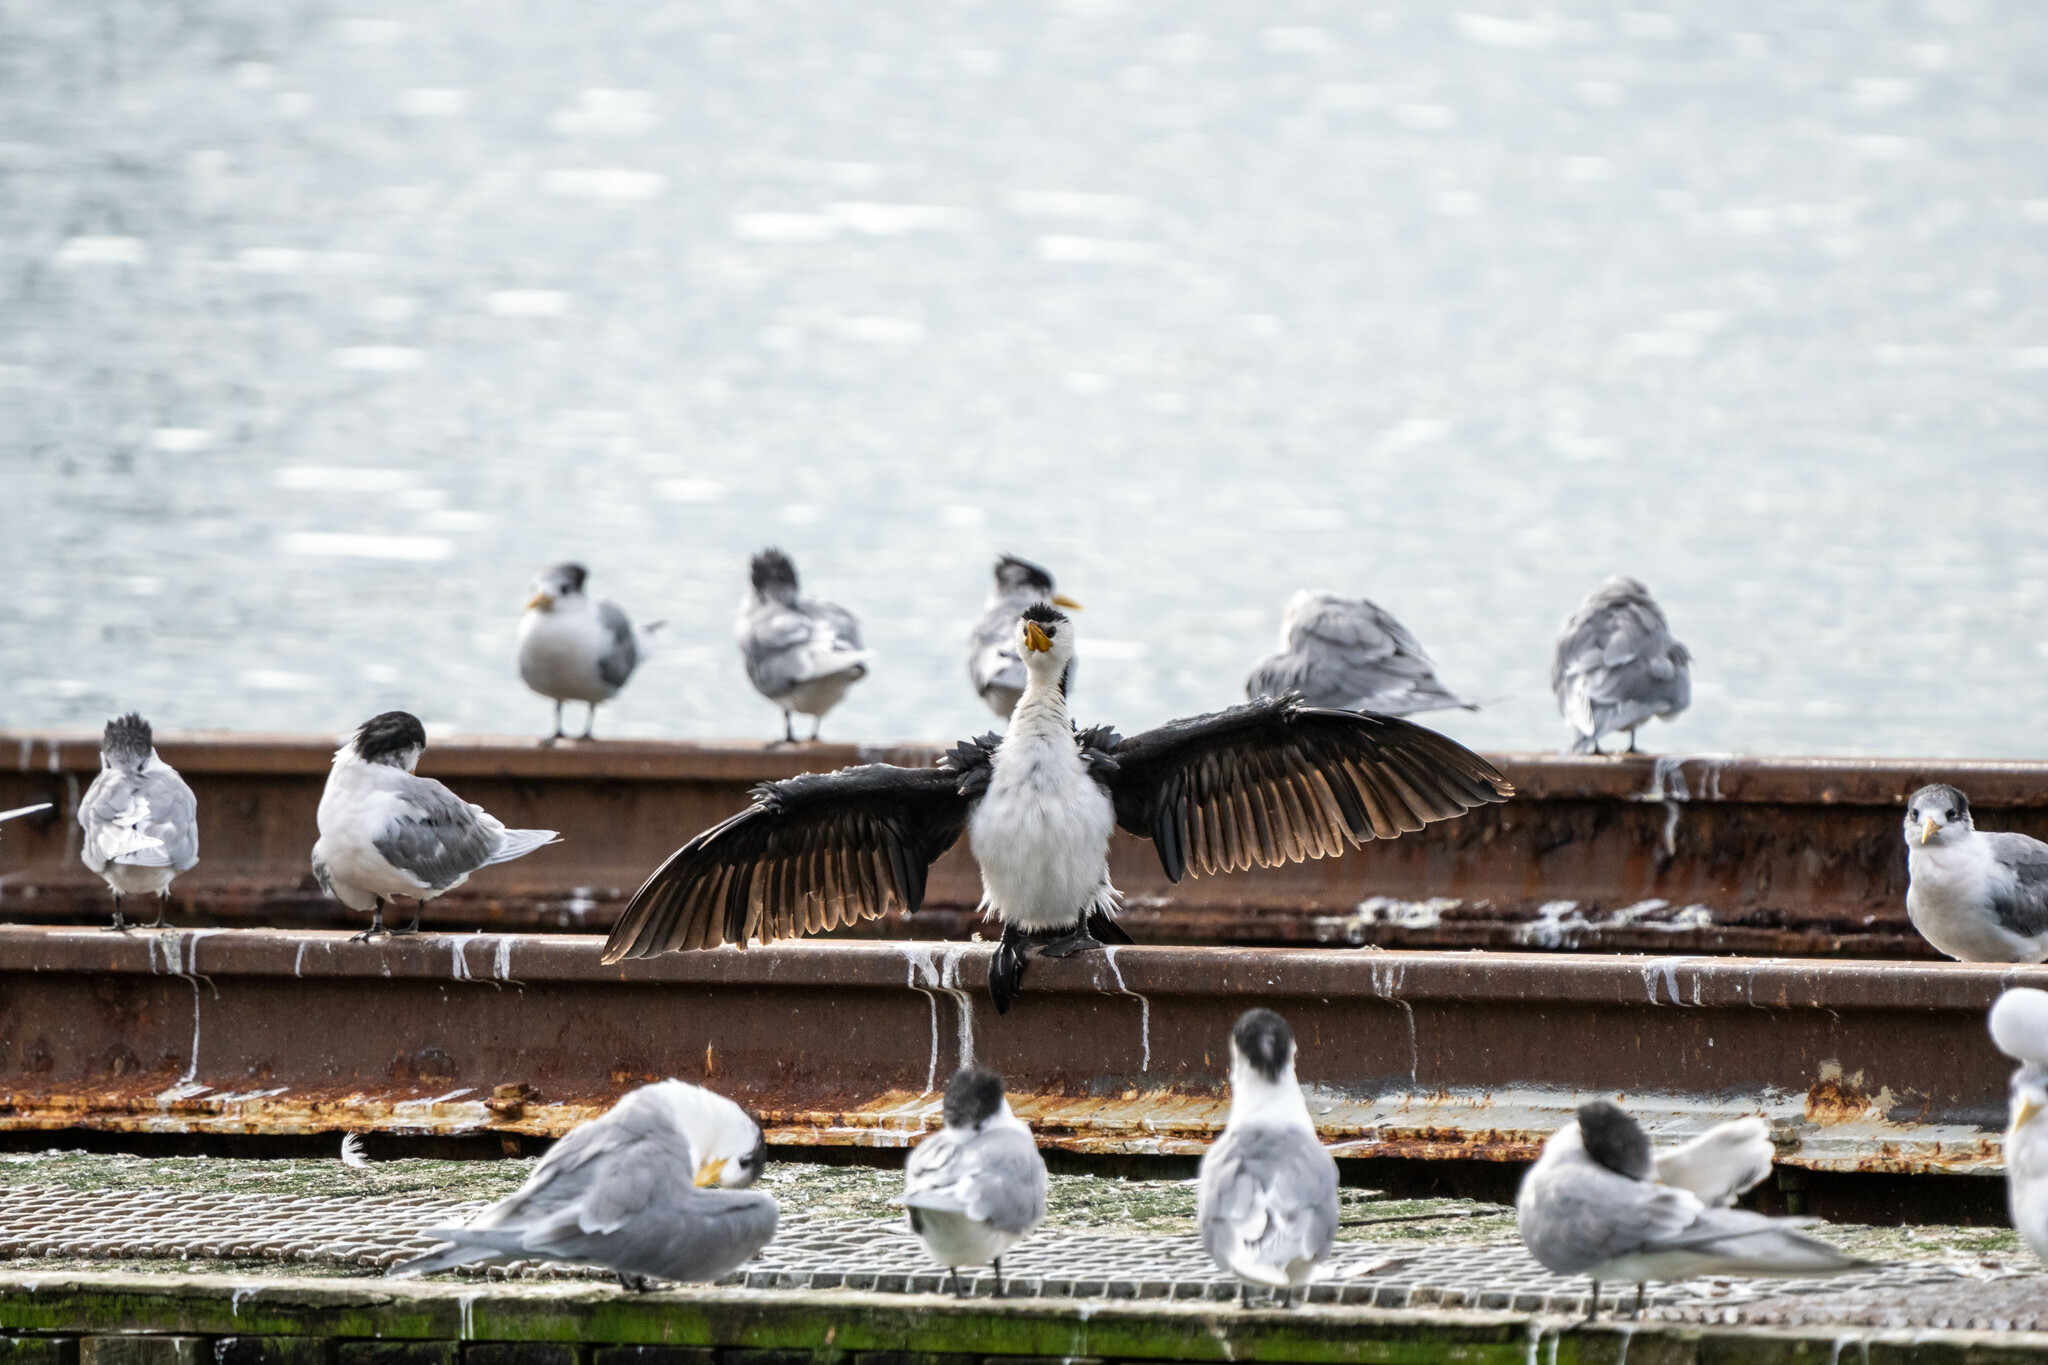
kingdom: Animalia
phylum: Chordata
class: Aves
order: Suliformes
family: Phalacrocoracidae
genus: Microcarbo
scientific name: Microcarbo melanoleucos
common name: Little pied cormorant
